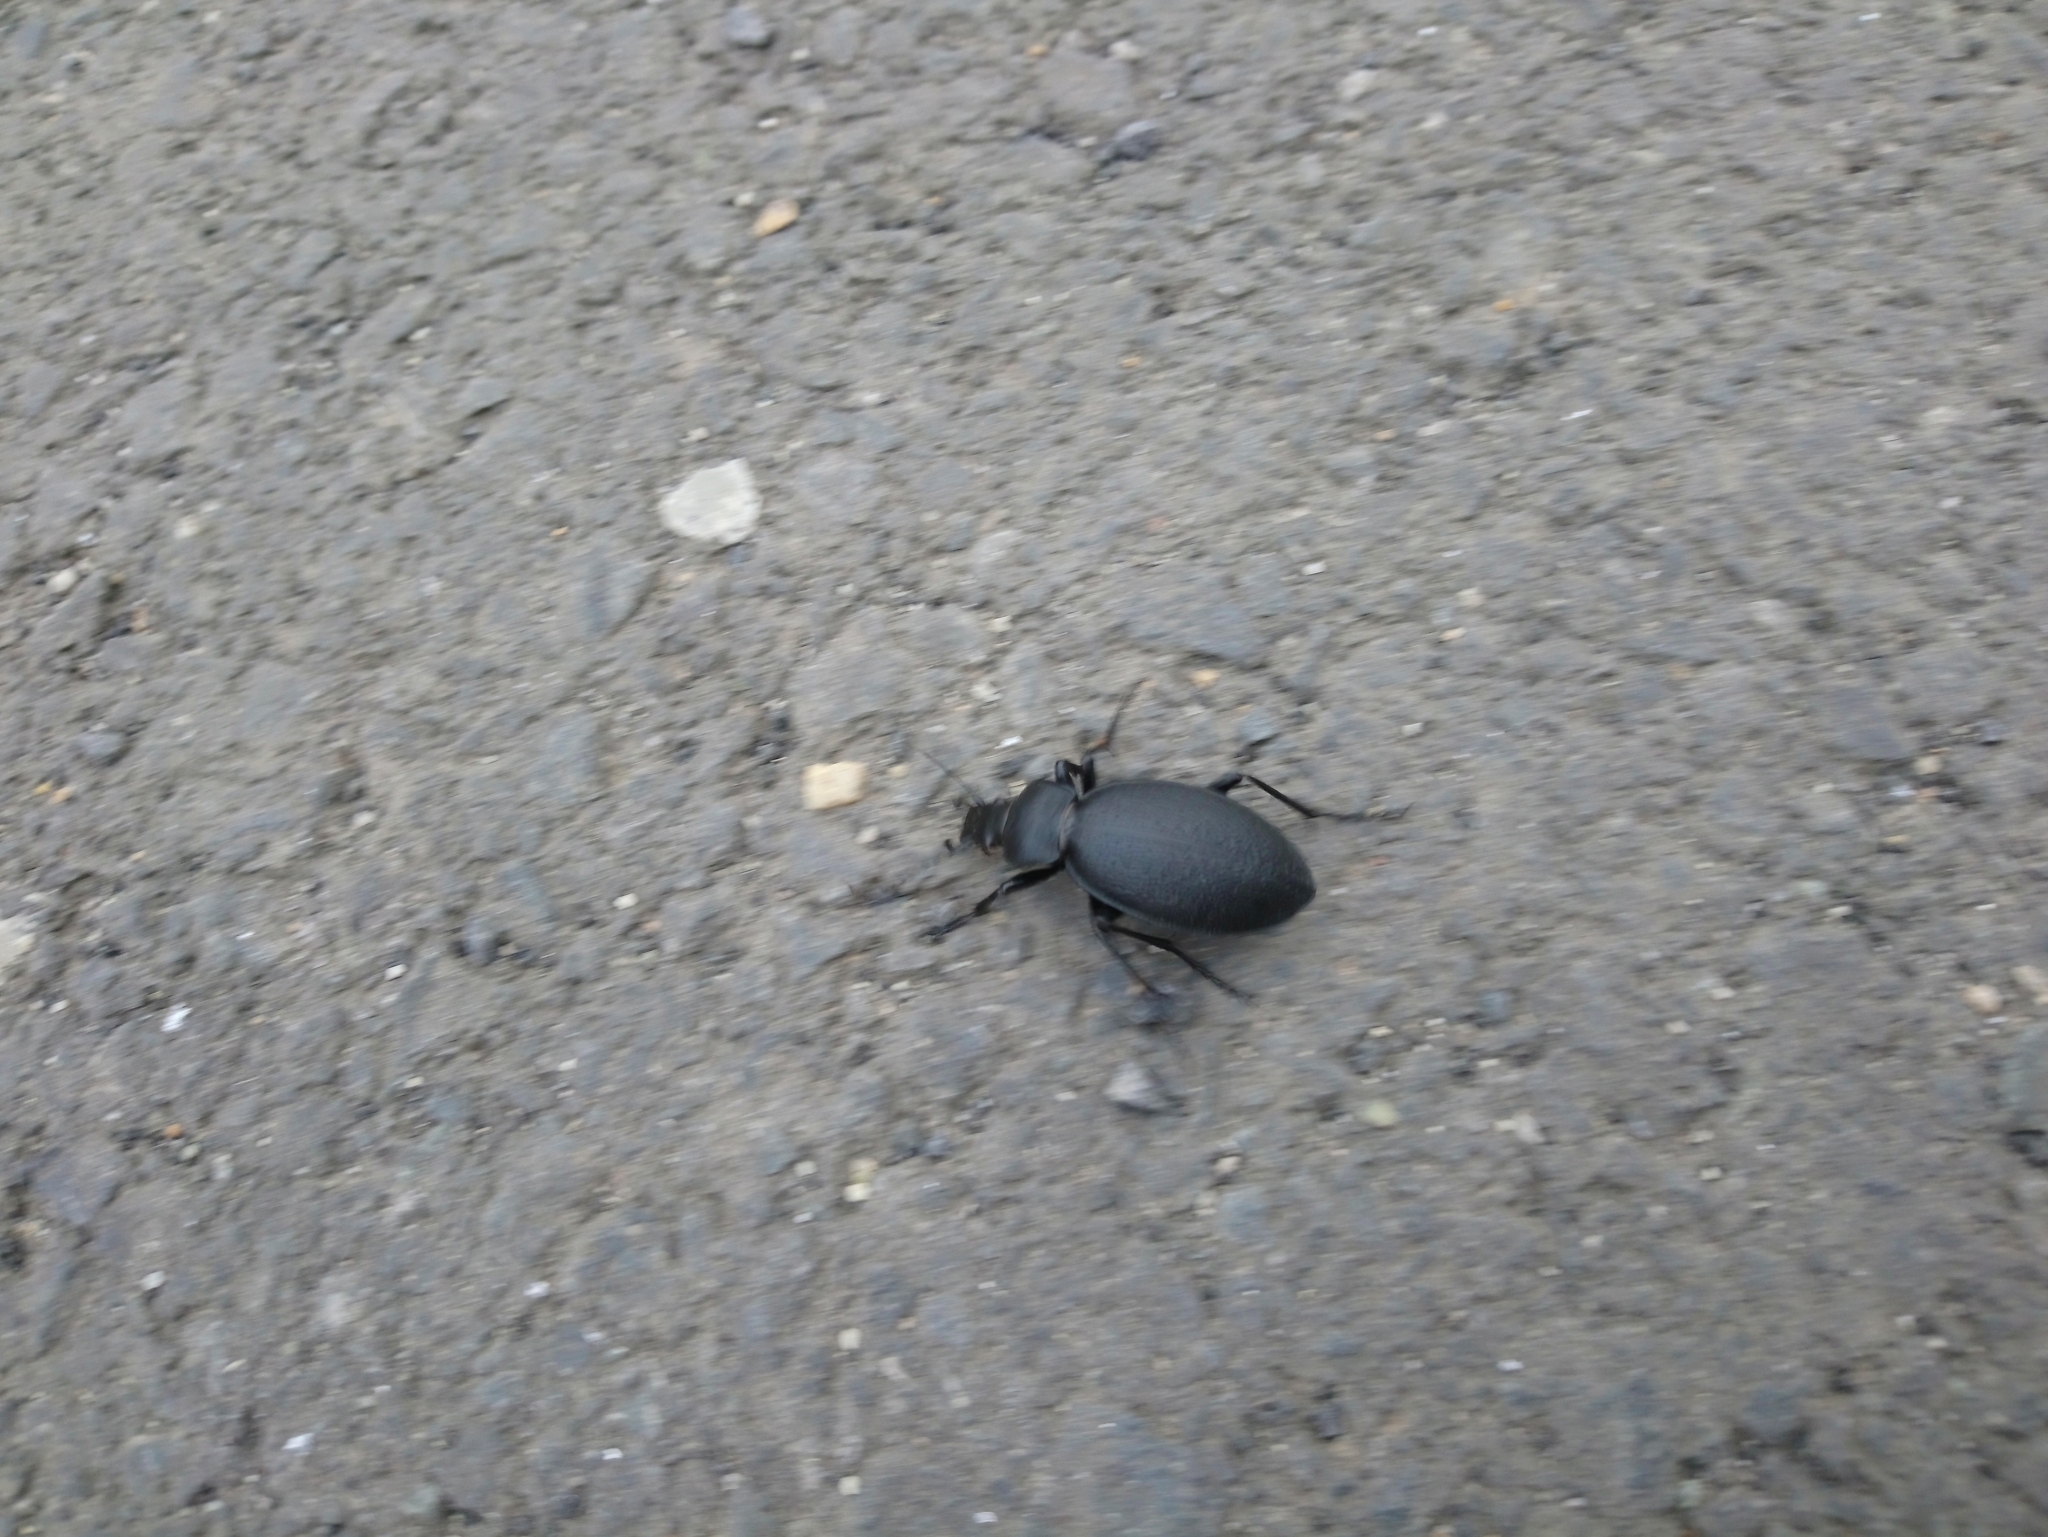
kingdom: Animalia
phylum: Arthropoda
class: Insecta
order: Coleoptera
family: Carabidae
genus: Carabus
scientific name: Carabus coriaceus
